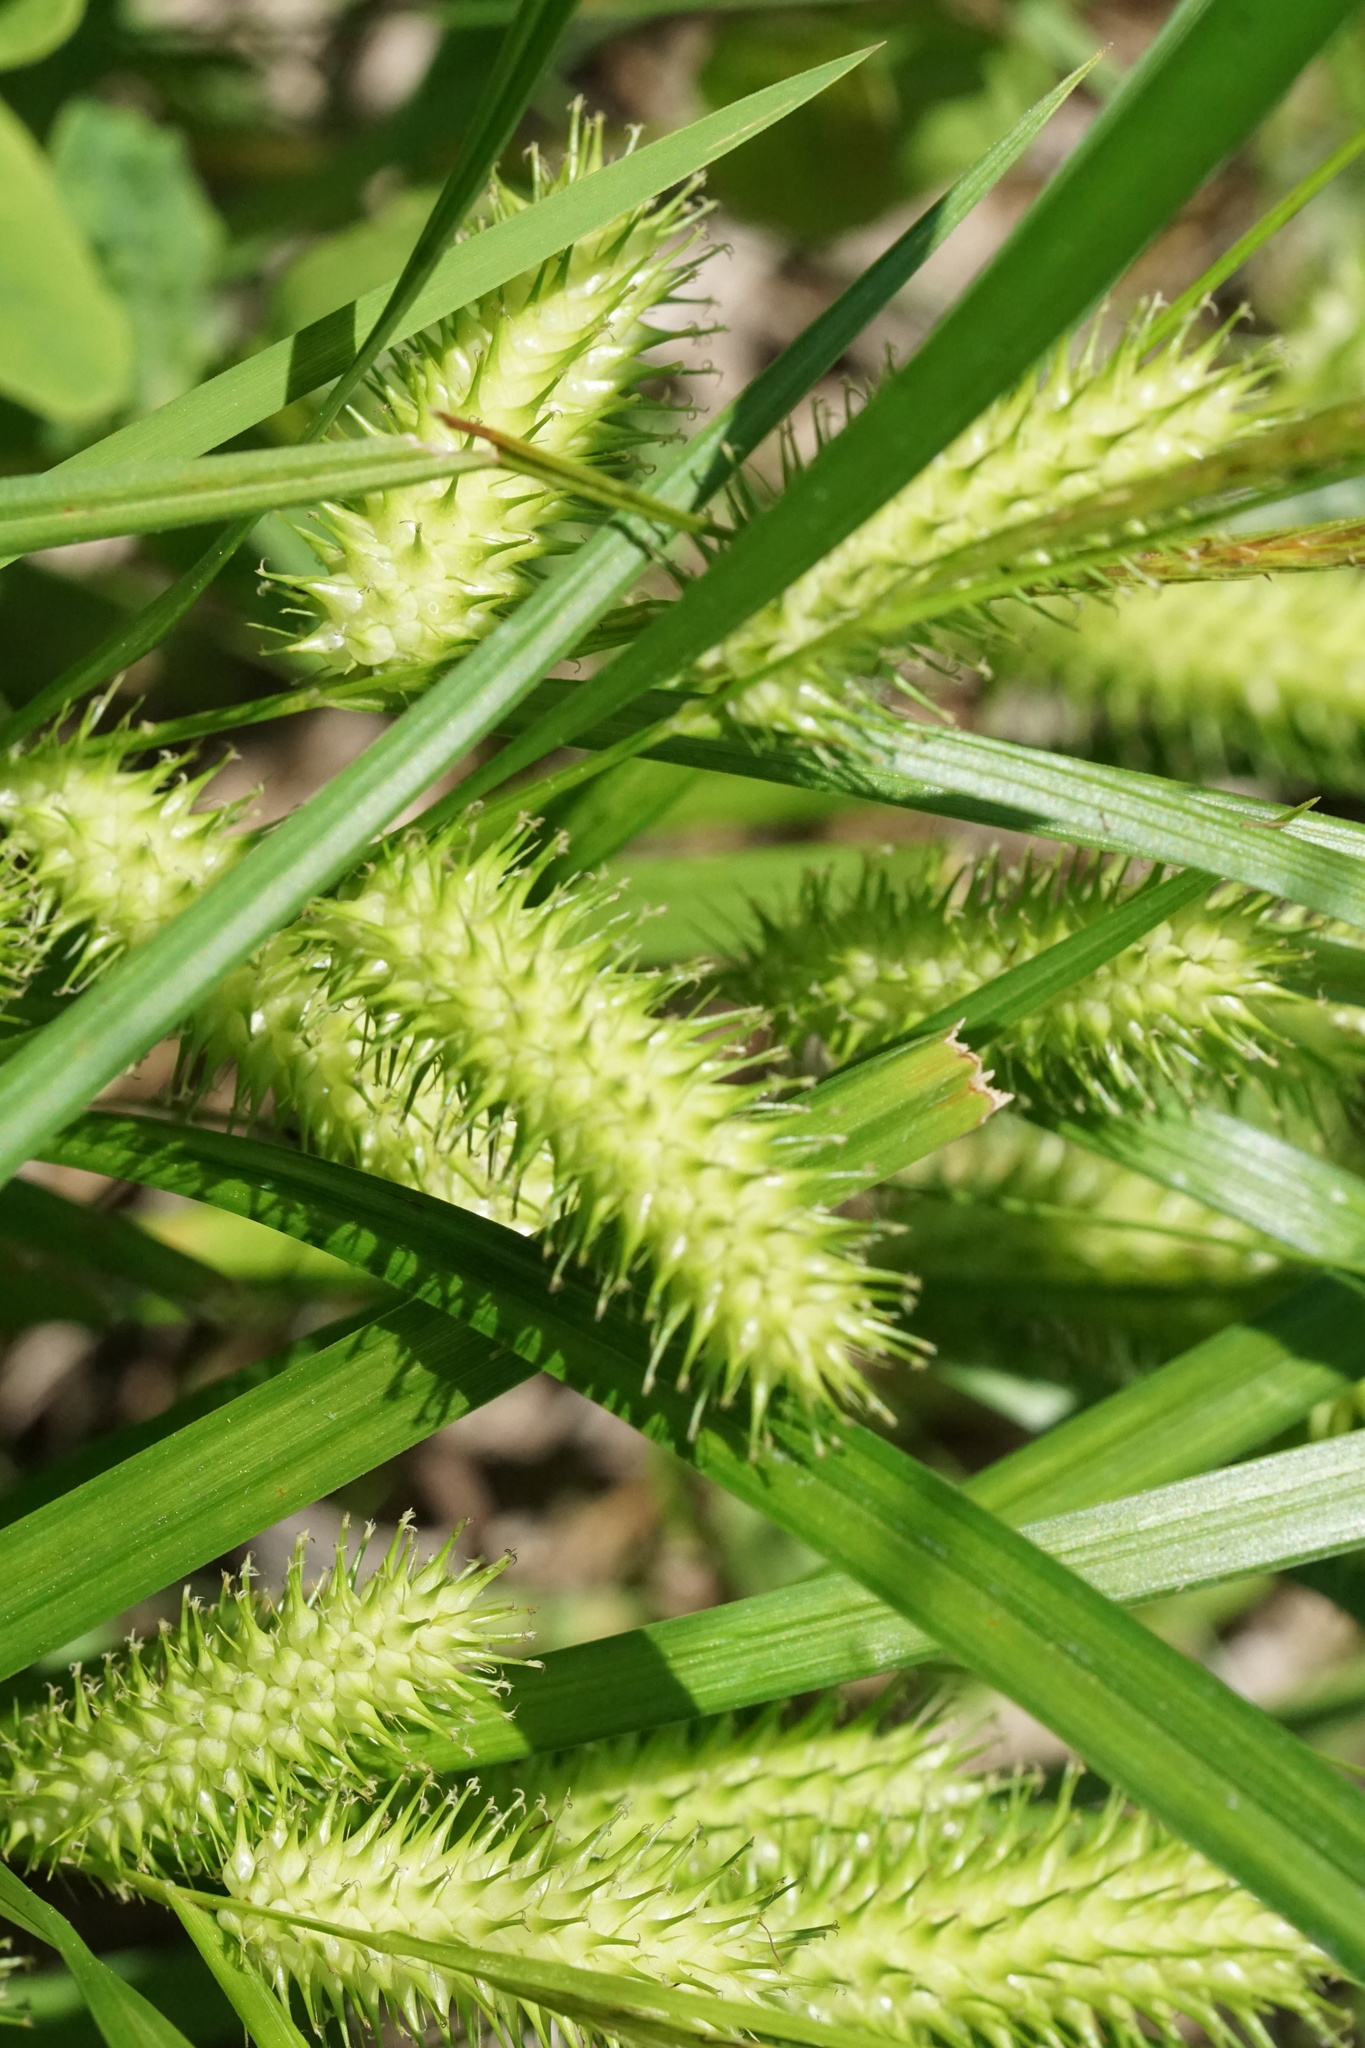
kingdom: Plantae
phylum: Tracheophyta
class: Liliopsida
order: Poales
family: Cyperaceae
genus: Carex
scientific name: Carex lurida
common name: Sallow sedge
